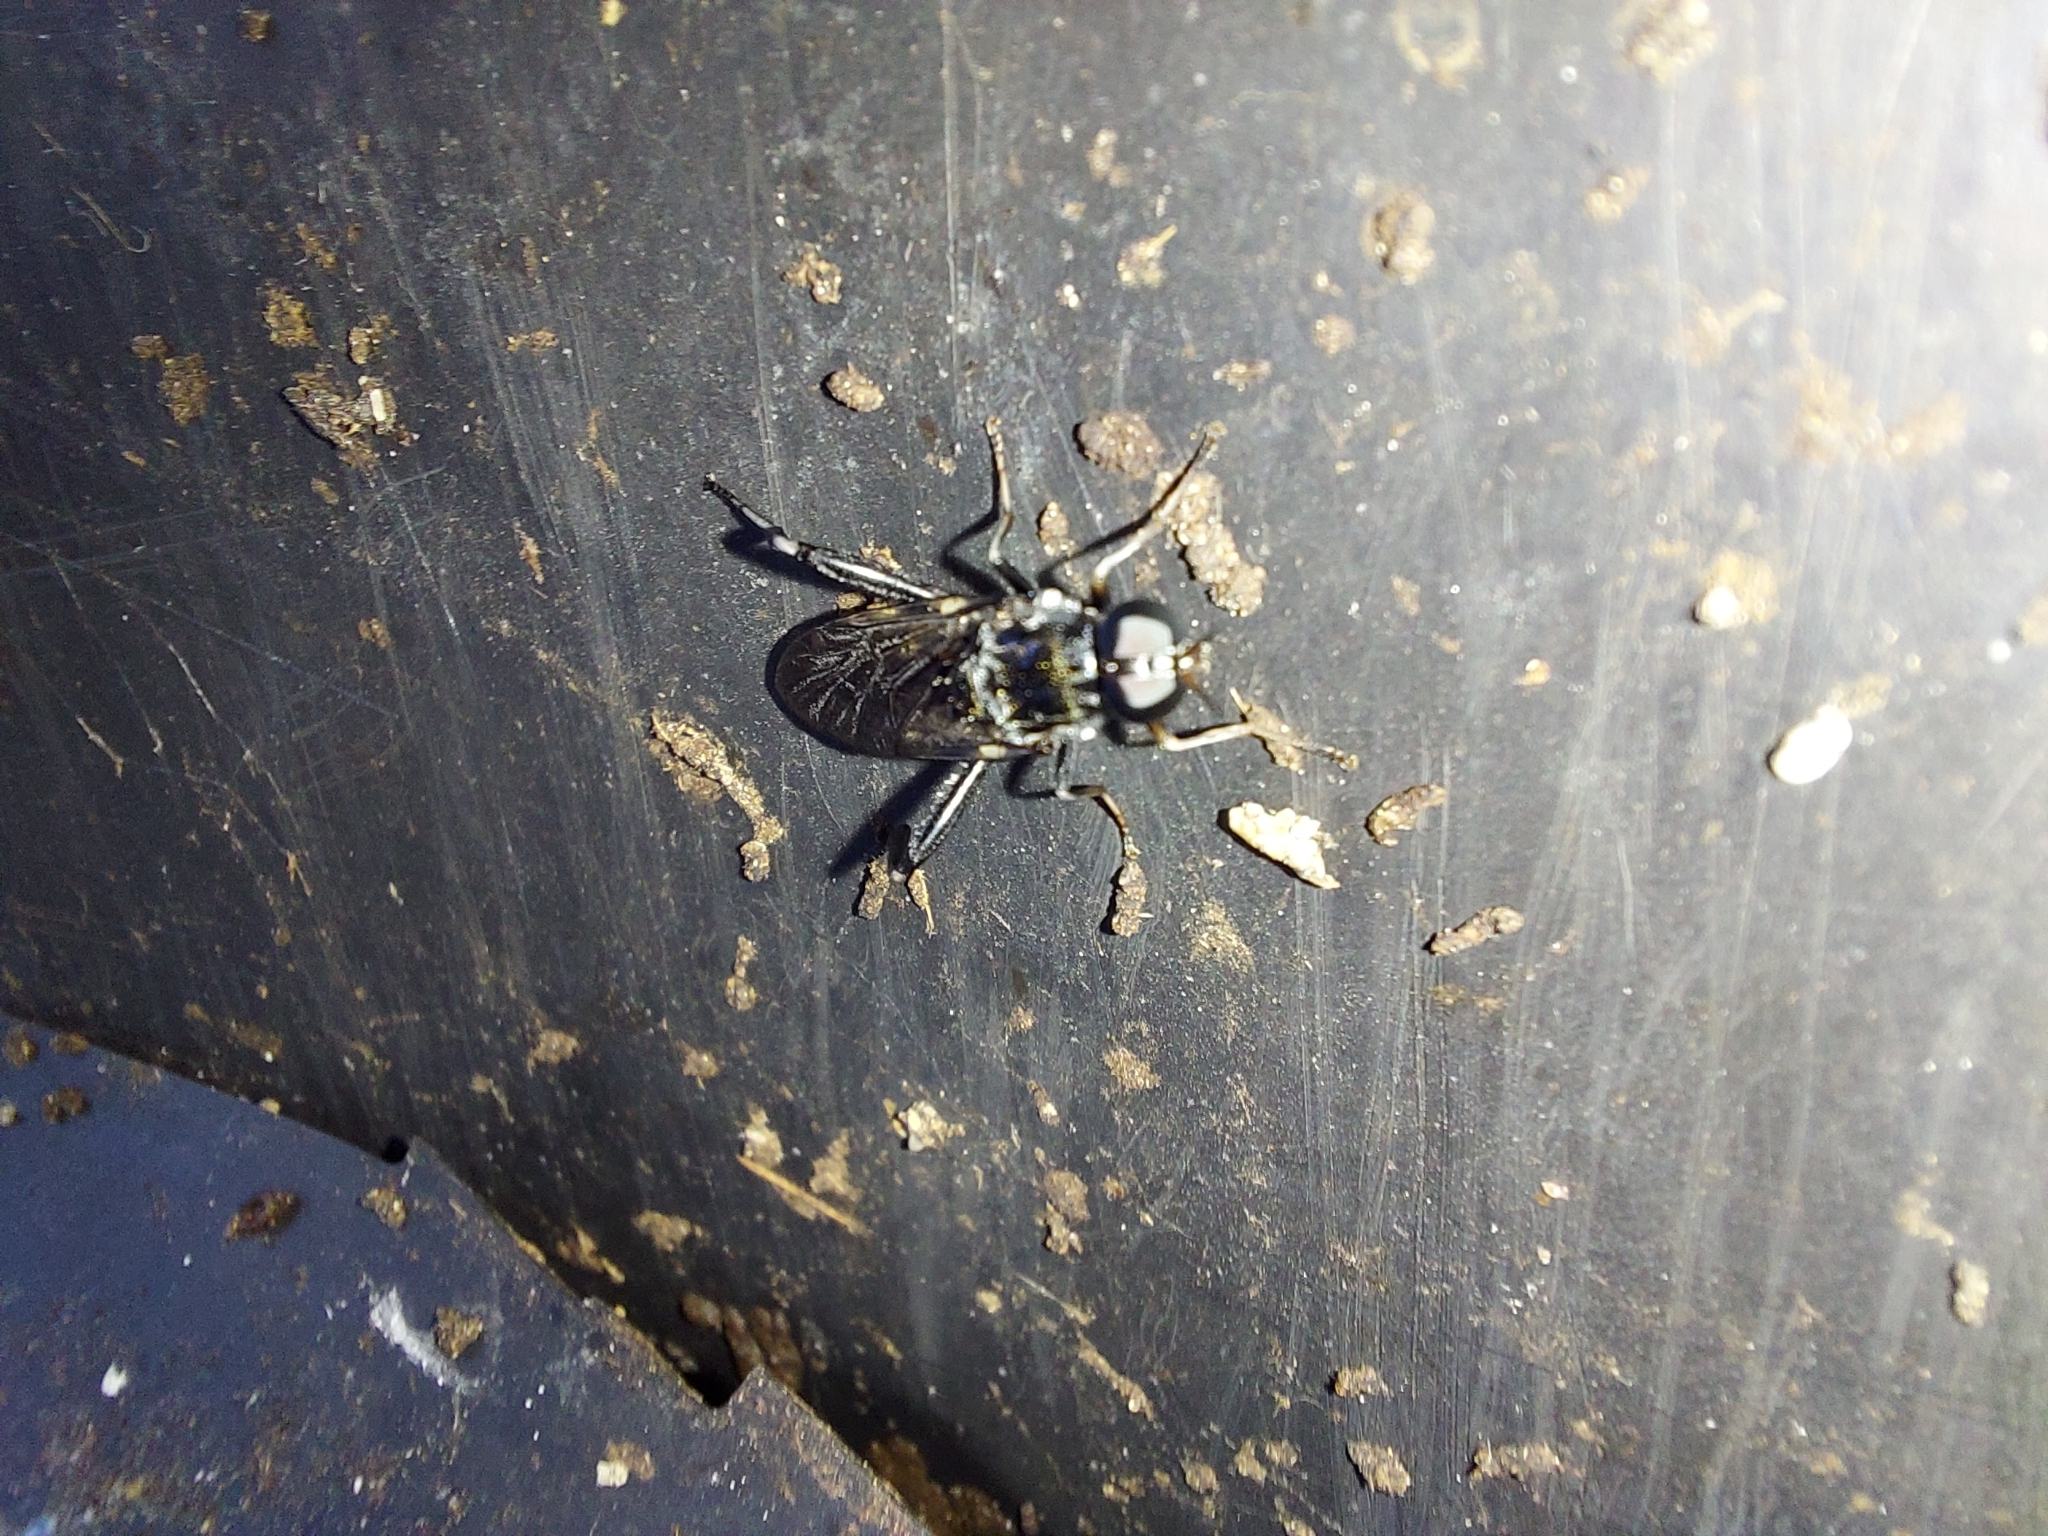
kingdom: Animalia
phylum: Arthropoda
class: Insecta
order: Diptera
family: Stratiomyidae
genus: Exaireta
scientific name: Exaireta spinigera
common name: Blue soldier fly
